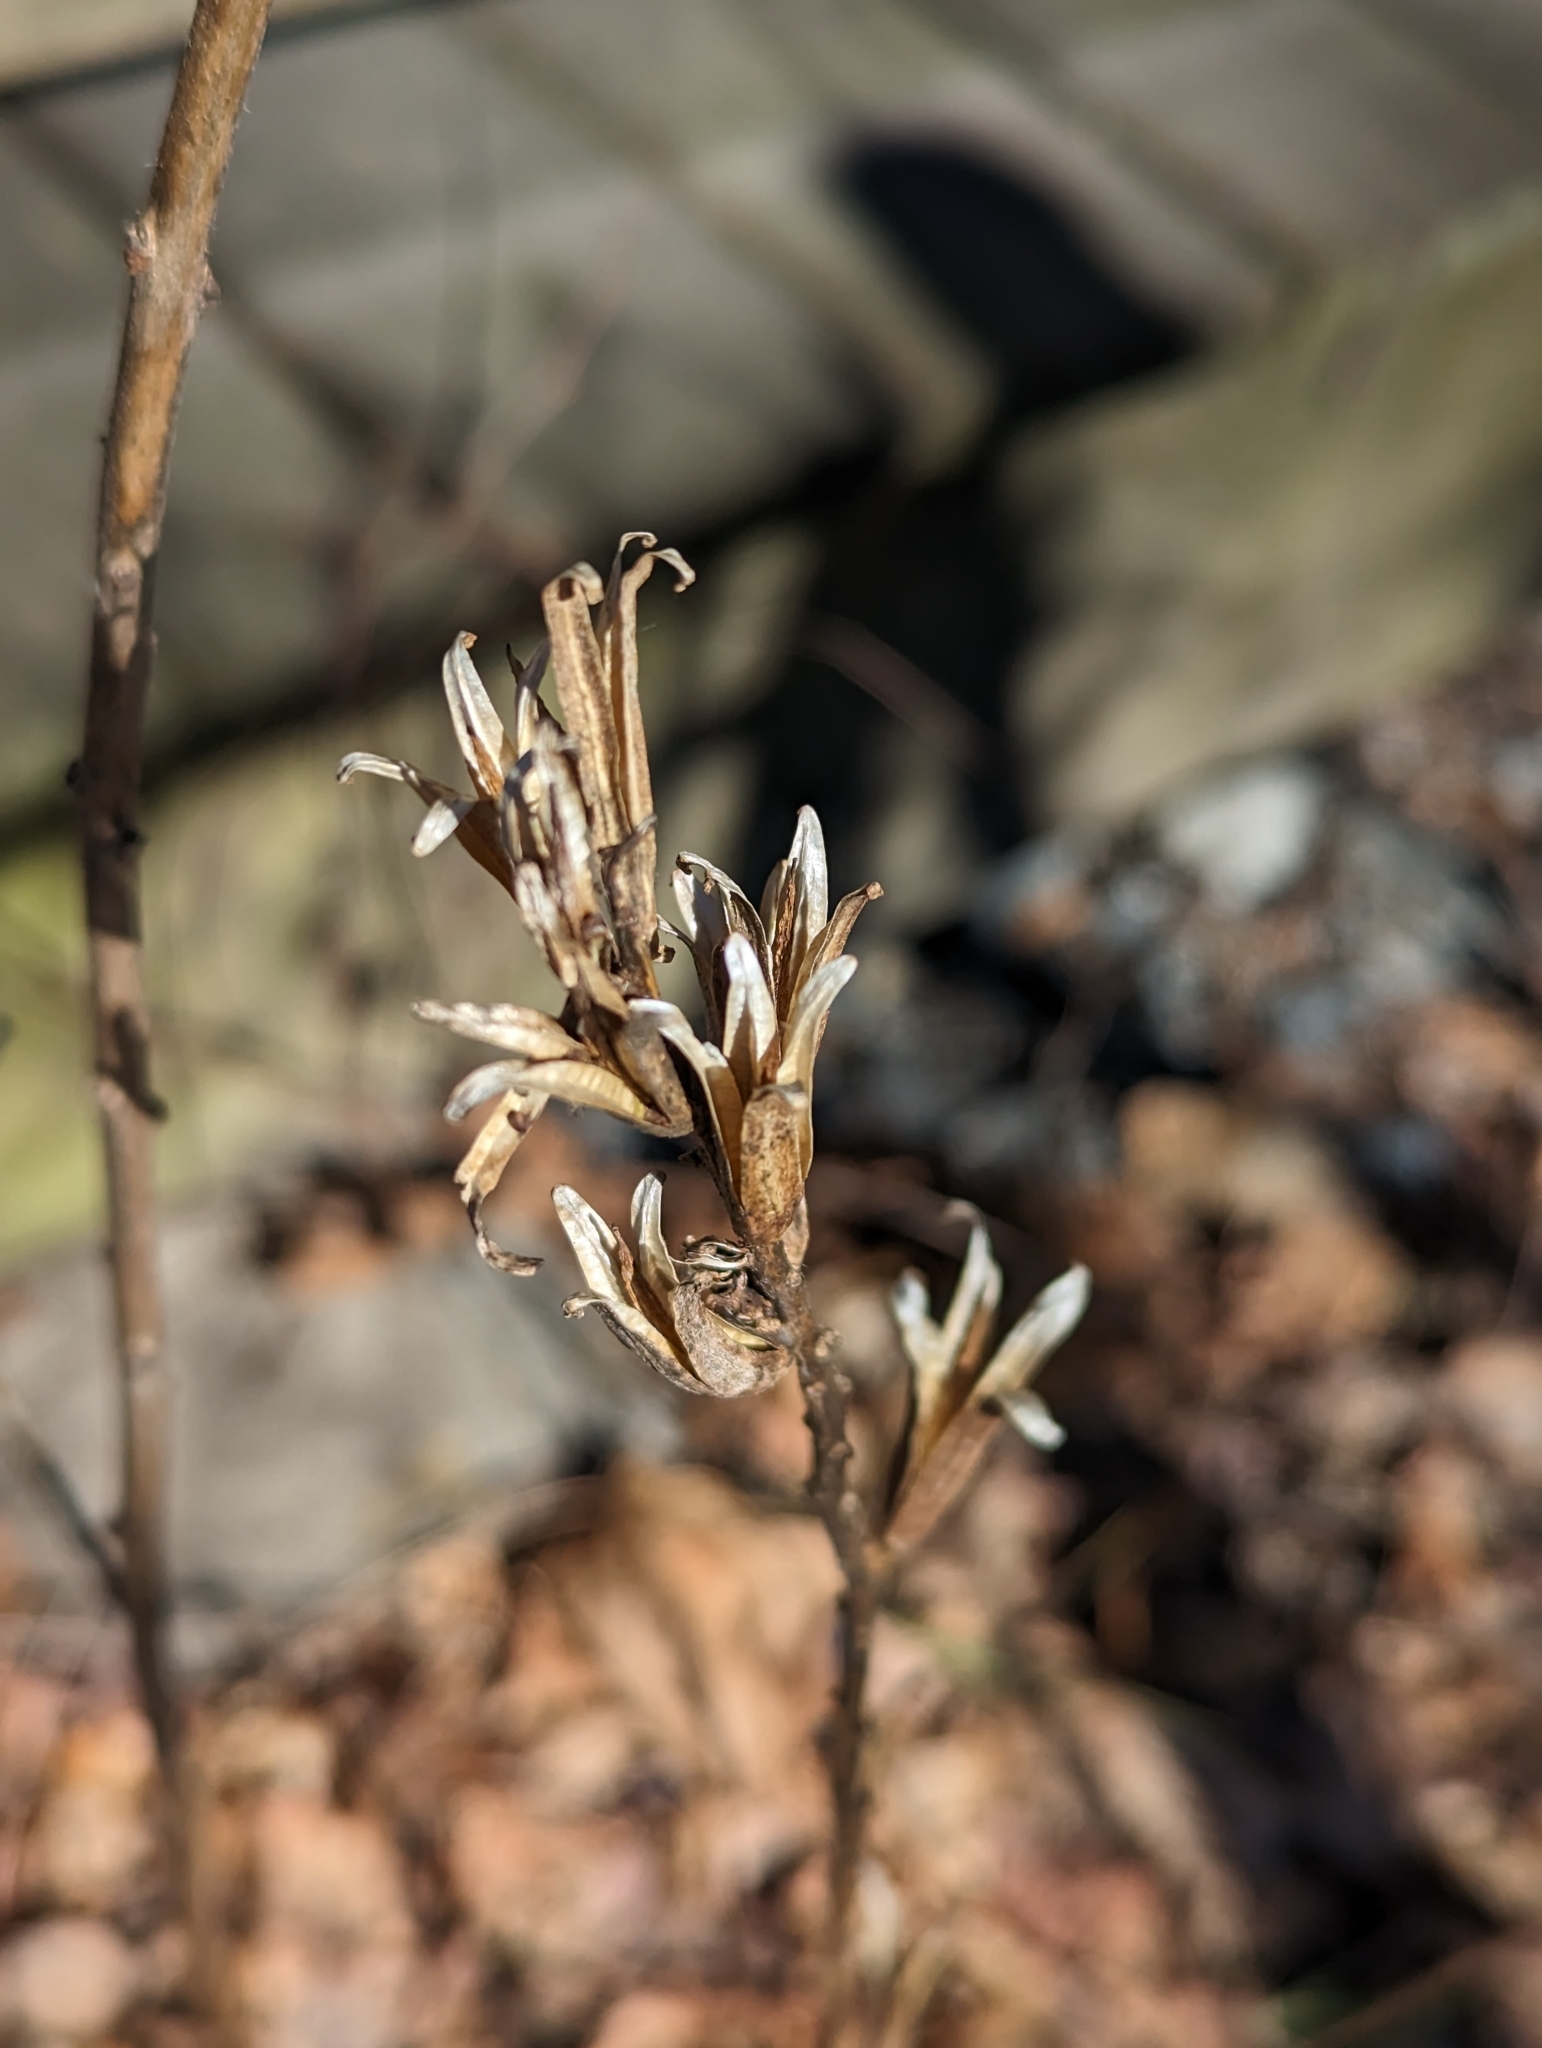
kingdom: Plantae
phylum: Tracheophyta
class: Magnoliopsida
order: Myrtales
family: Onagraceae
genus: Oenothera
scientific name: Oenothera biennis
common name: Common evening-primrose
